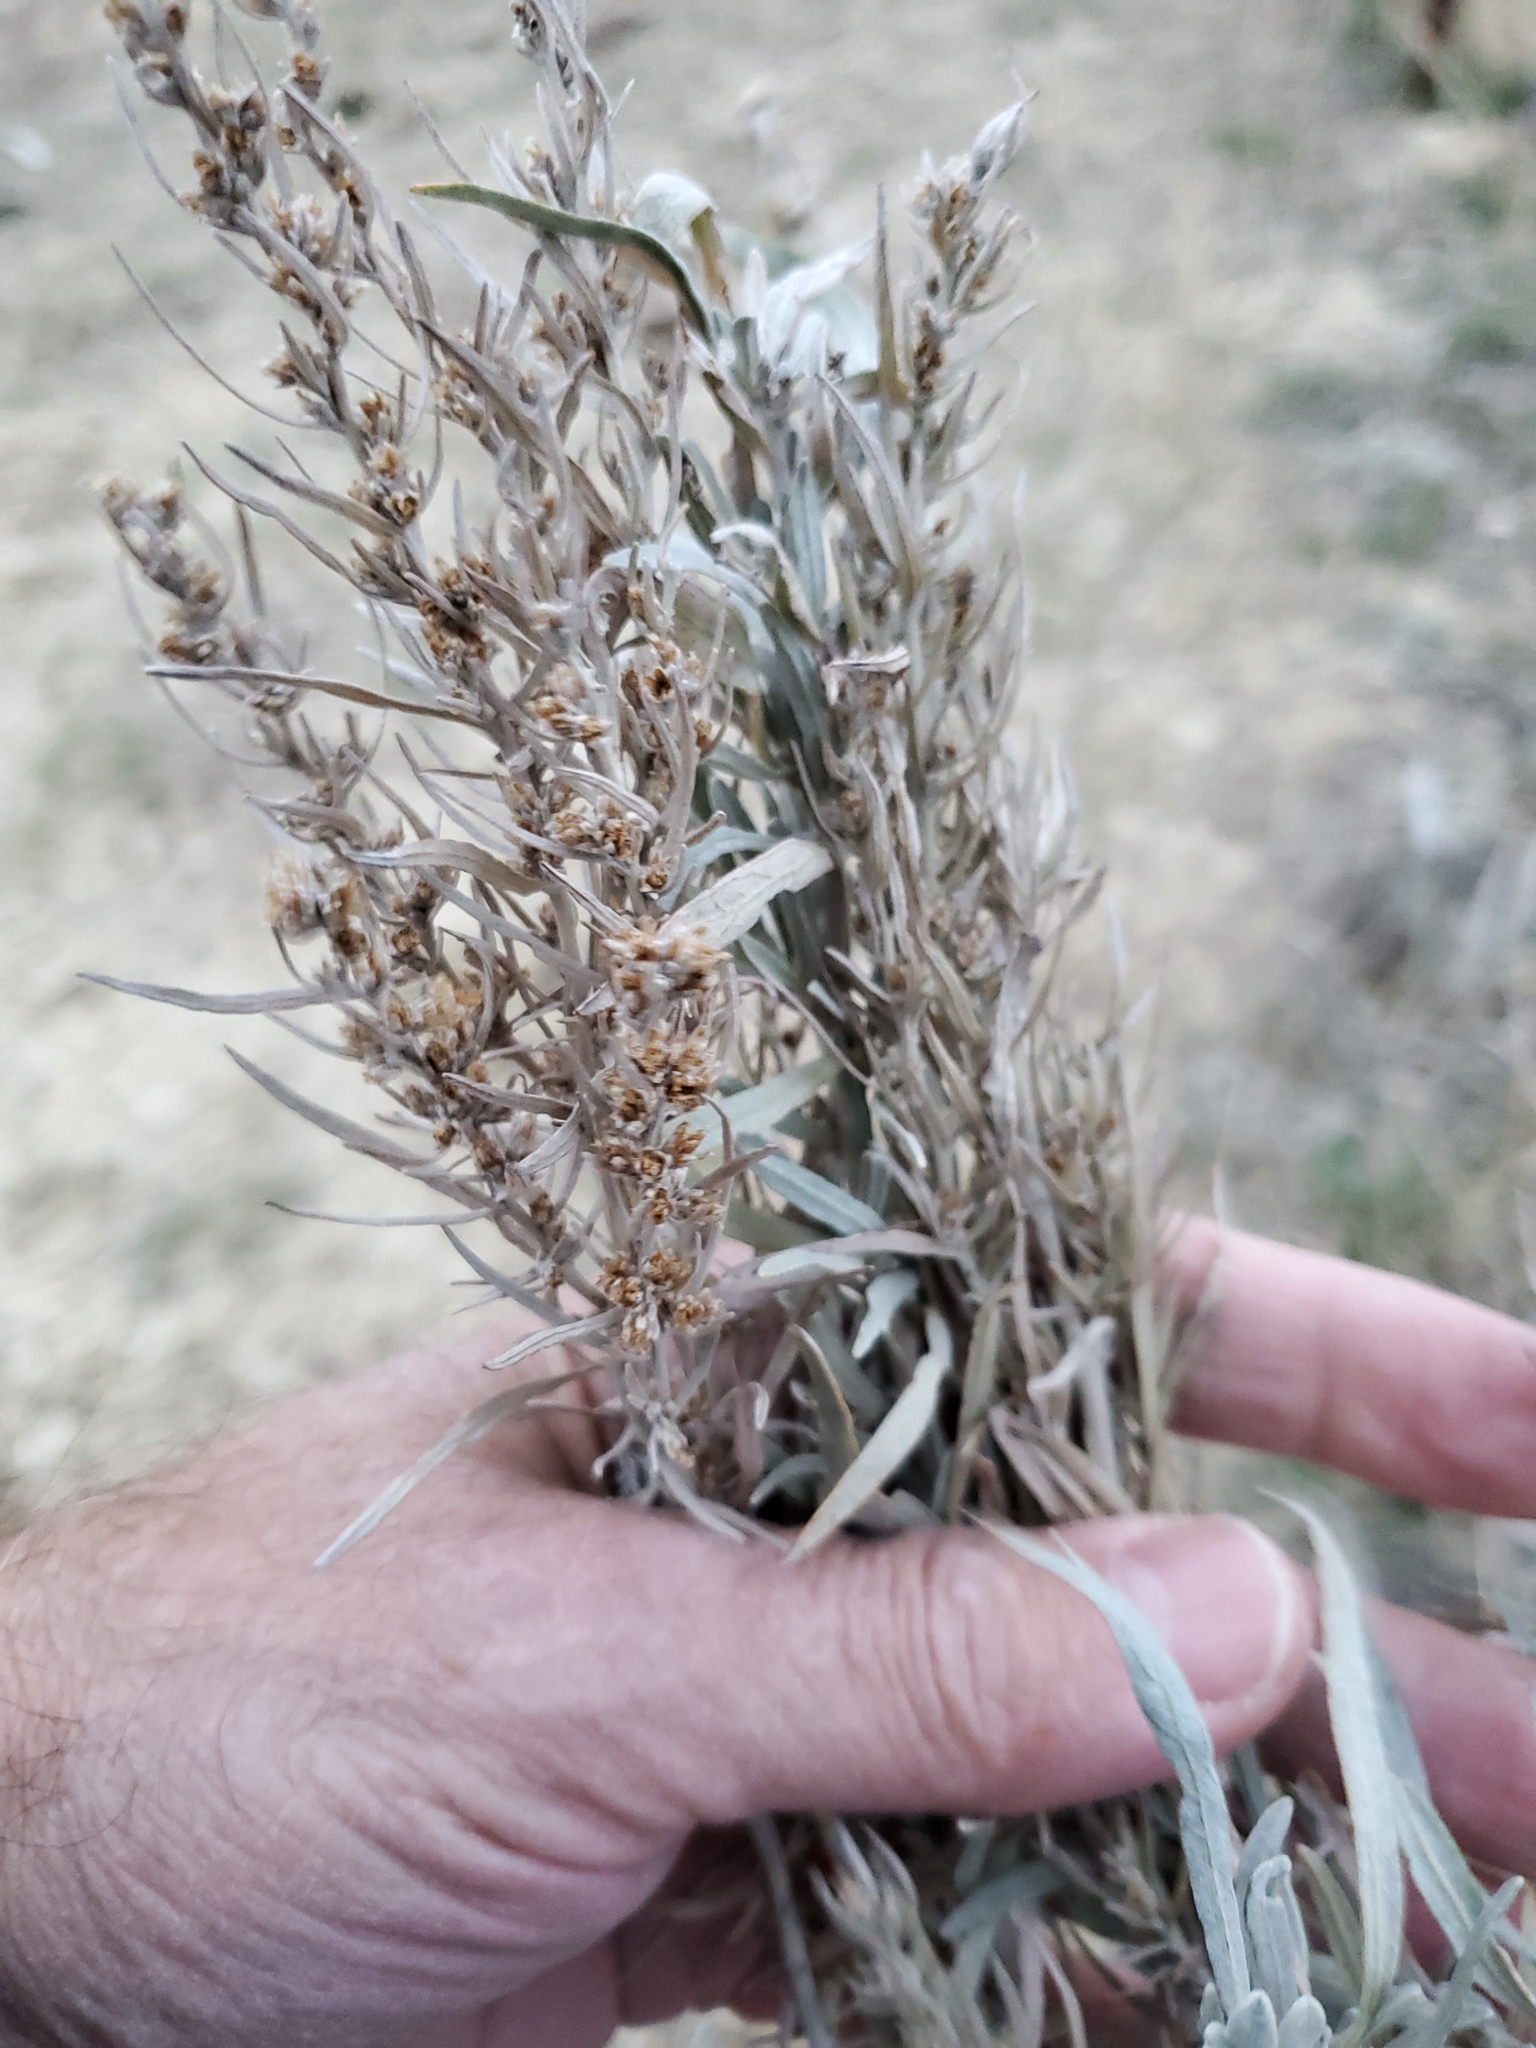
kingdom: Plantae
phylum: Tracheophyta
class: Magnoliopsida
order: Asterales
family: Asteraceae
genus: Artemisia
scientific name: Artemisia cana
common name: Silver sagebrush
